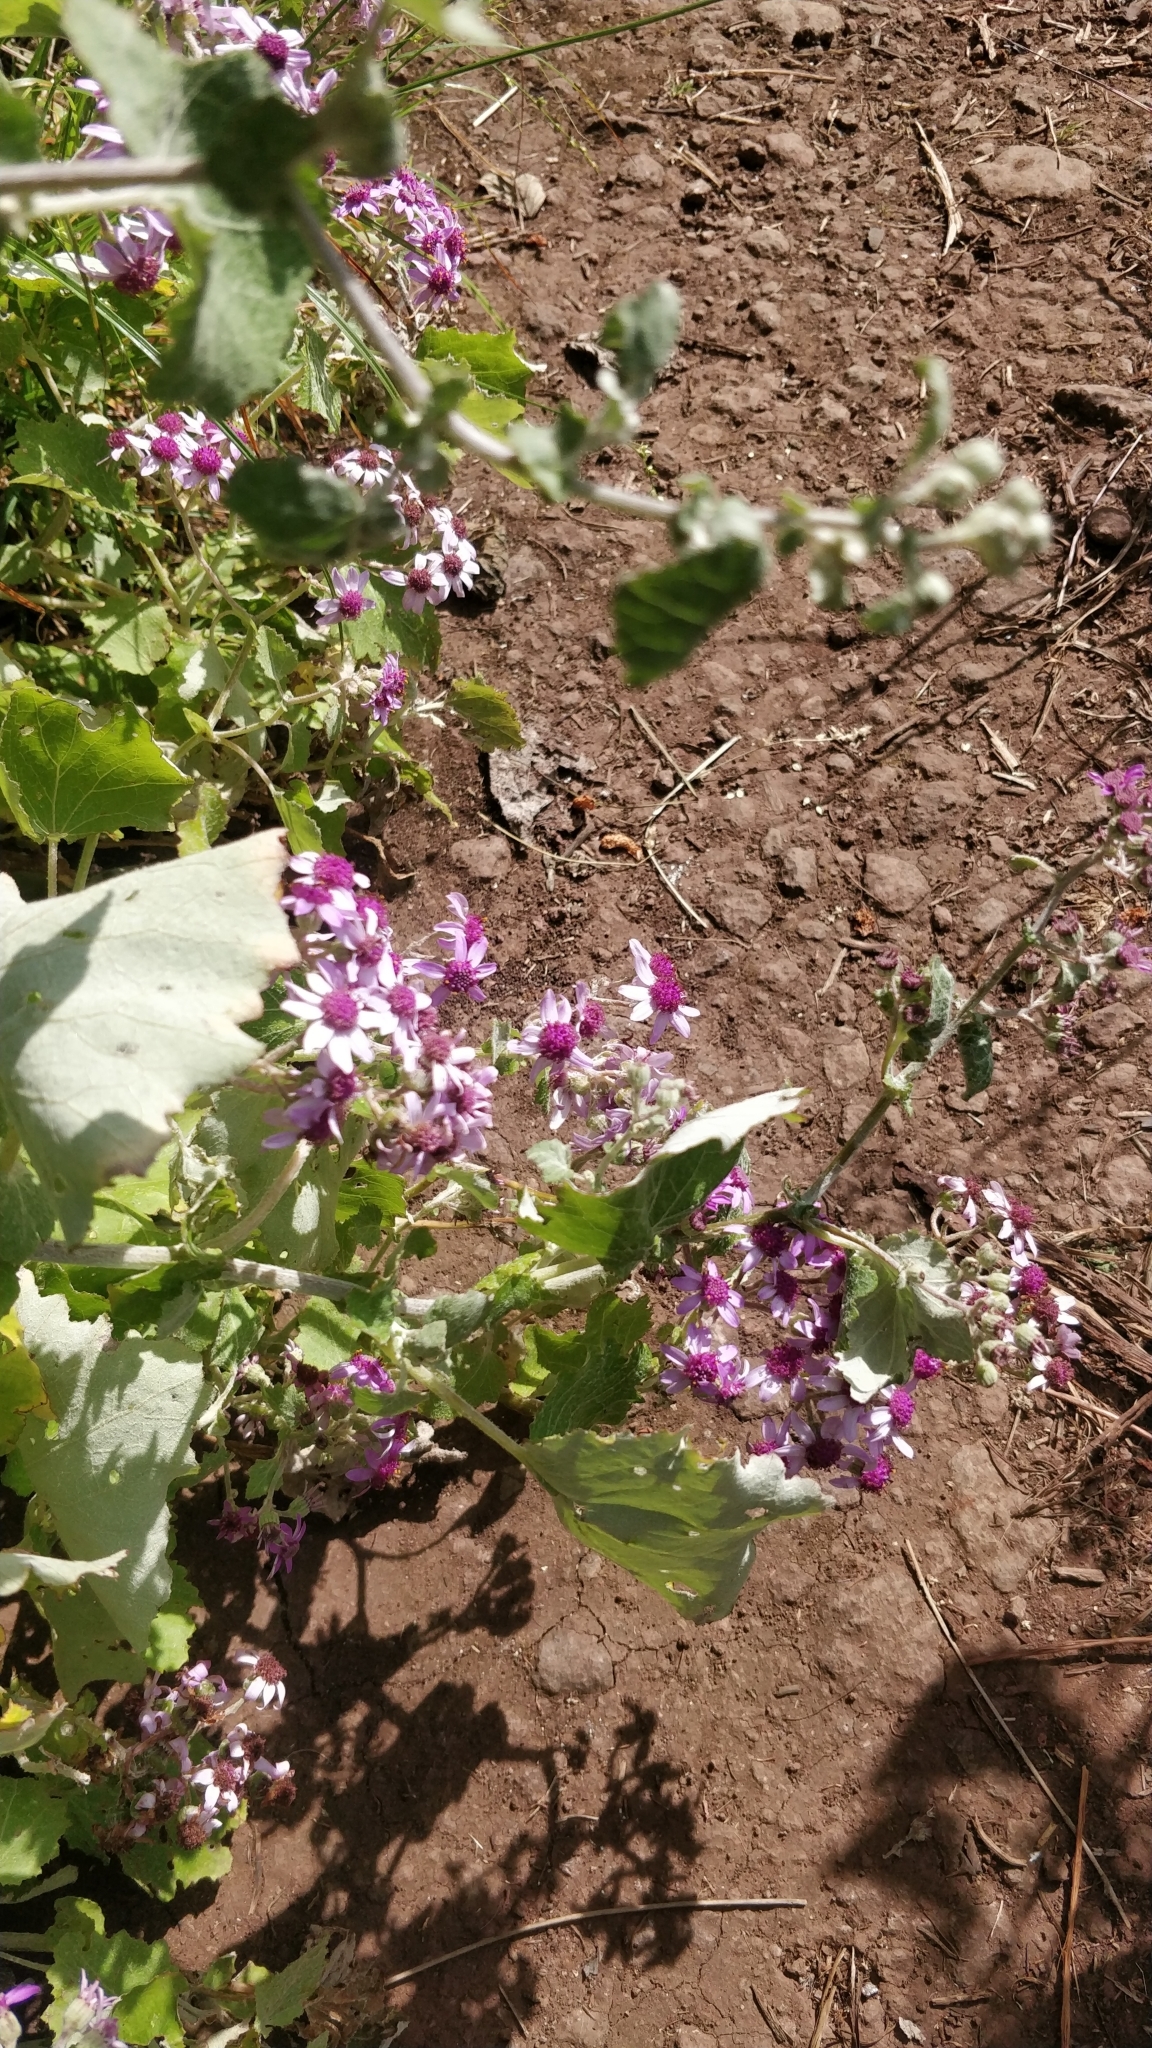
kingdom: Plantae
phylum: Tracheophyta
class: Magnoliopsida
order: Asterales
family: Asteraceae
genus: Pericallis
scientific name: Pericallis aurita
